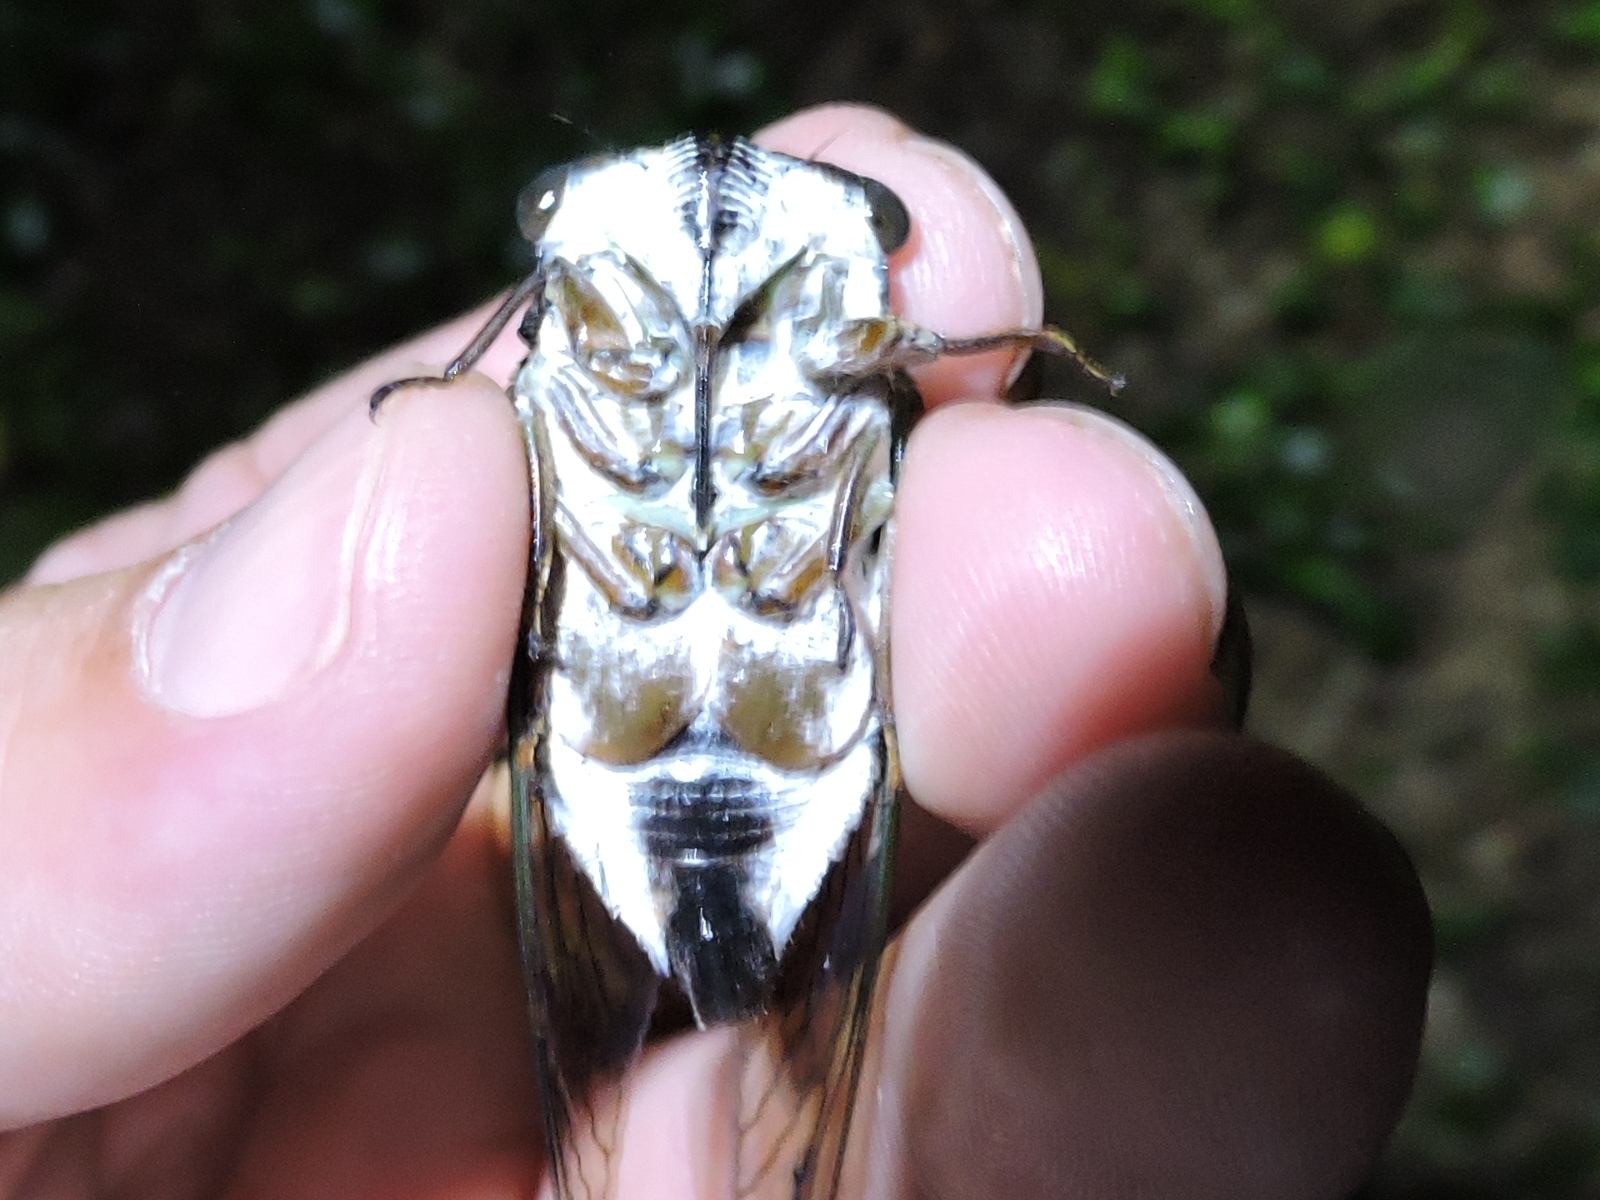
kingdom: Animalia
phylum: Arthropoda
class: Insecta
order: Hemiptera
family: Cicadidae
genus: Neotibicen
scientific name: Neotibicen lyricen
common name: Lyric cicada
